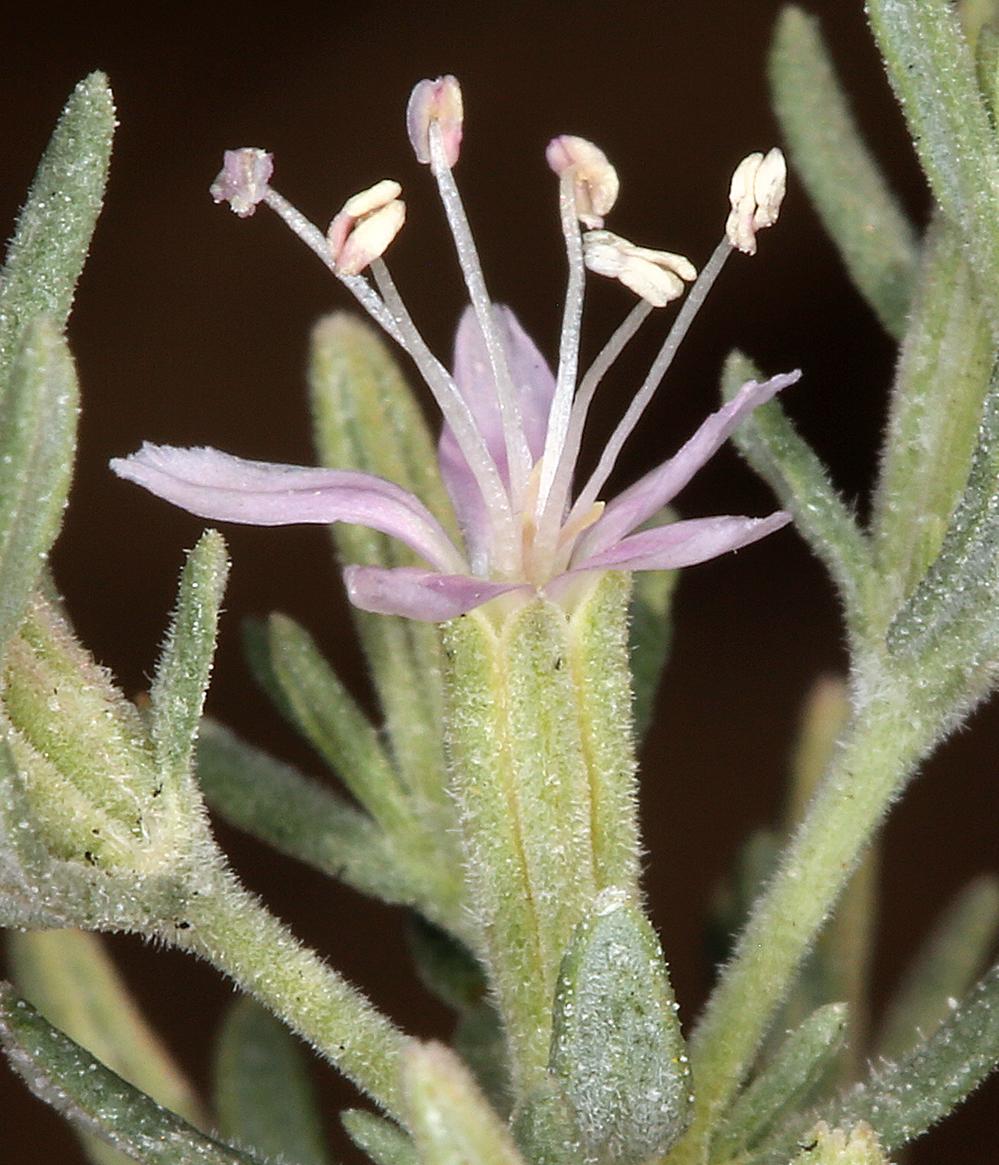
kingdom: Plantae
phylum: Tracheophyta
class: Magnoliopsida
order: Caryophyllales
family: Frankeniaceae
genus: Frankenia
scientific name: Frankenia salina
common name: Alkali seaheath
